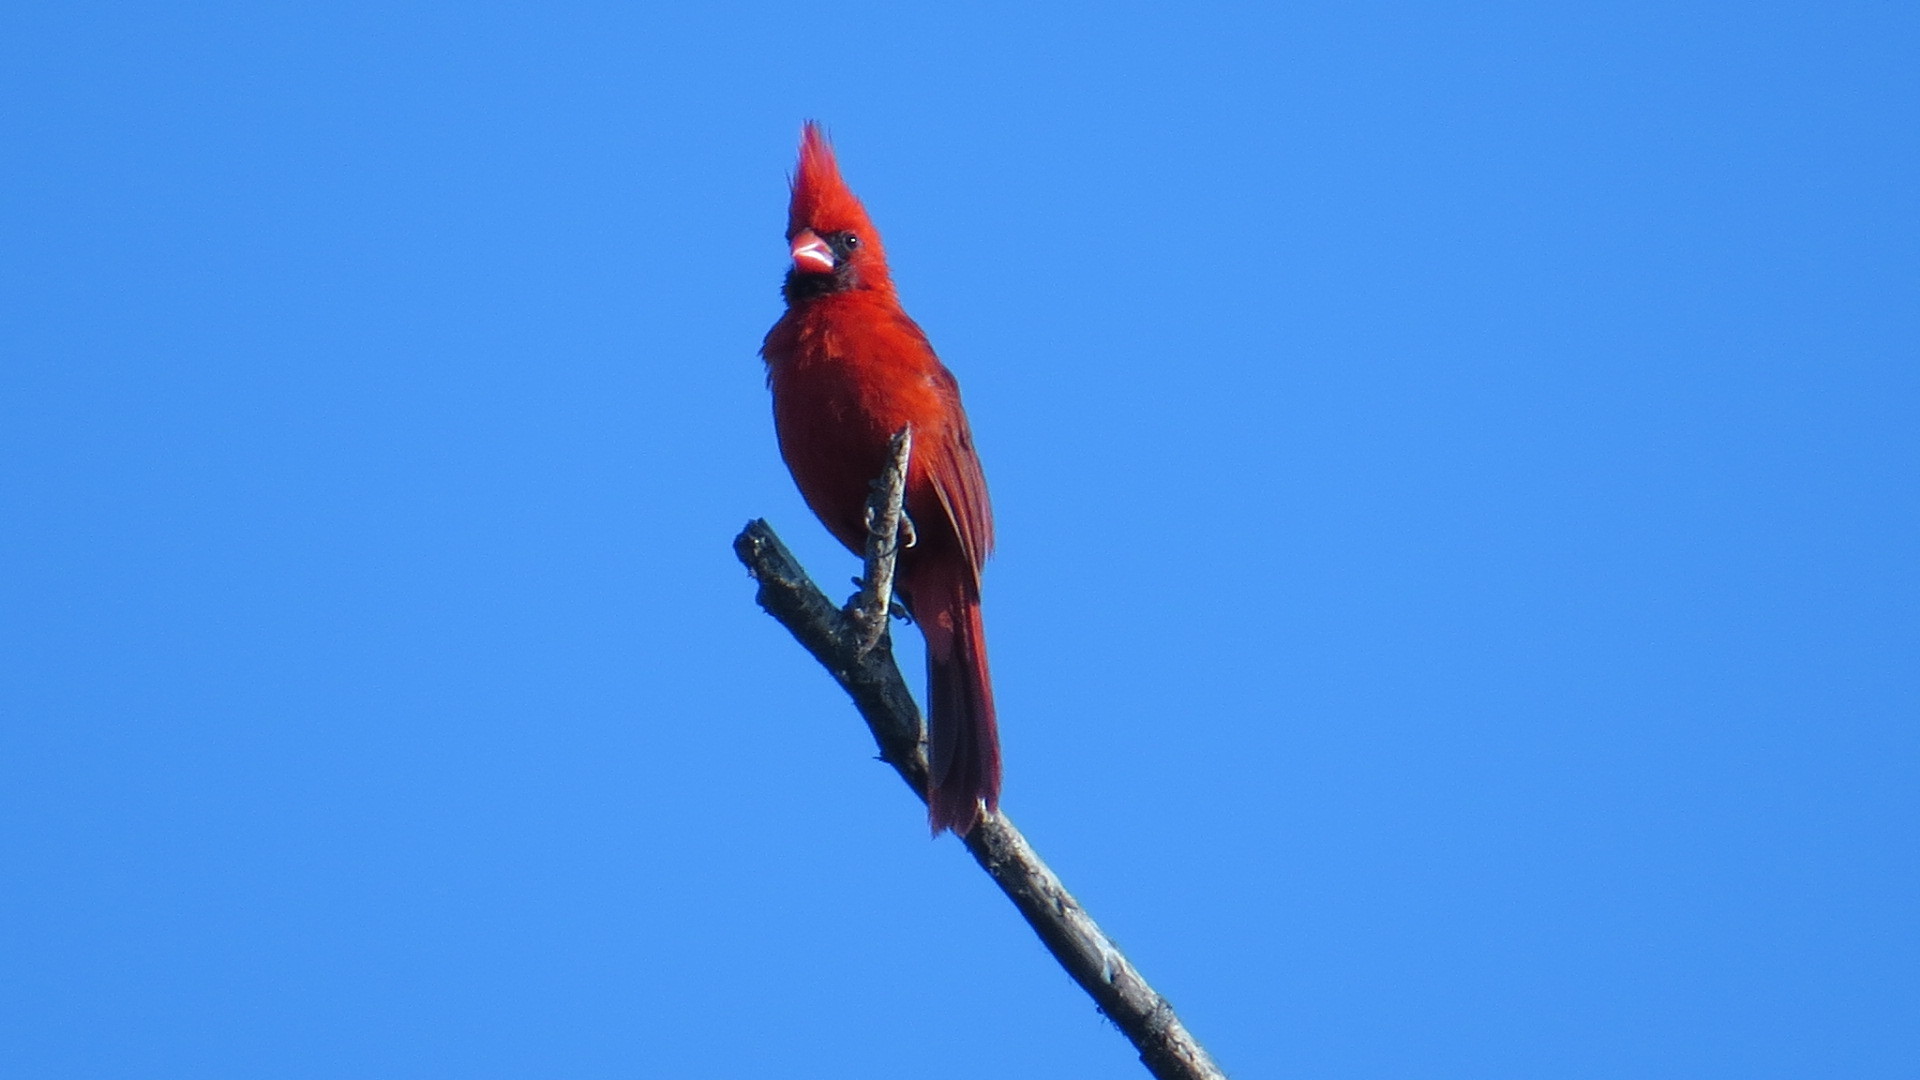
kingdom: Animalia
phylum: Chordata
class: Aves
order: Passeriformes
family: Cardinalidae
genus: Cardinalis
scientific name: Cardinalis cardinalis
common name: Northern cardinal
